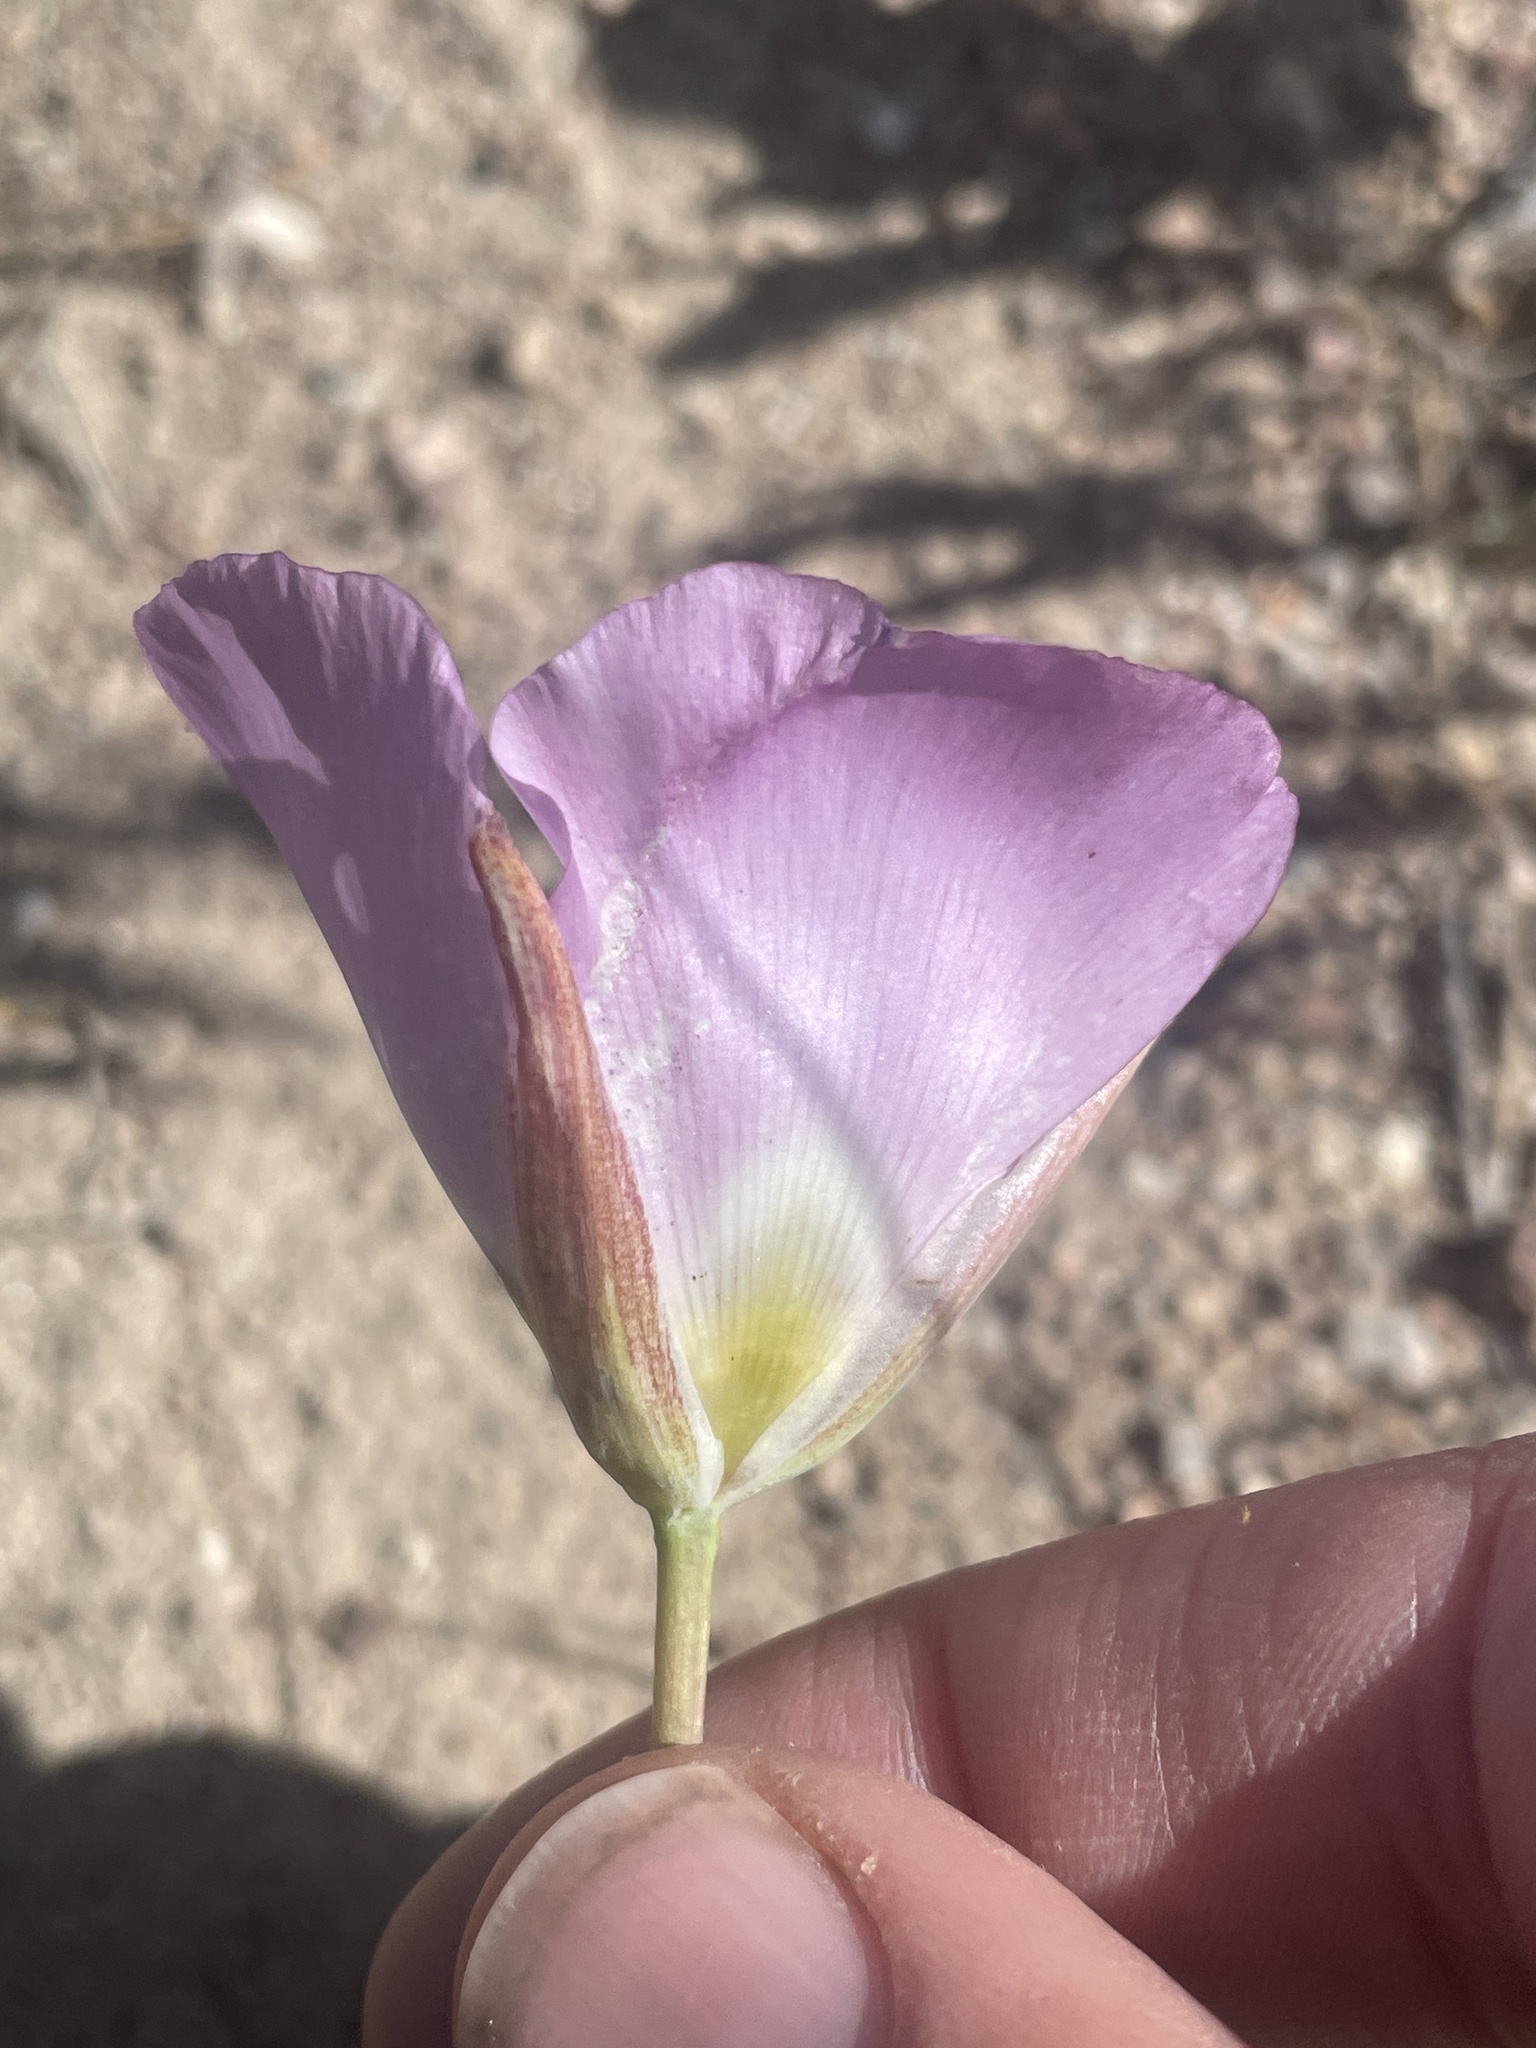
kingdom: Plantae
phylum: Tracheophyta
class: Liliopsida
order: Liliales
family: Liliaceae
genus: Calochortus
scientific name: Calochortus flexuosus
